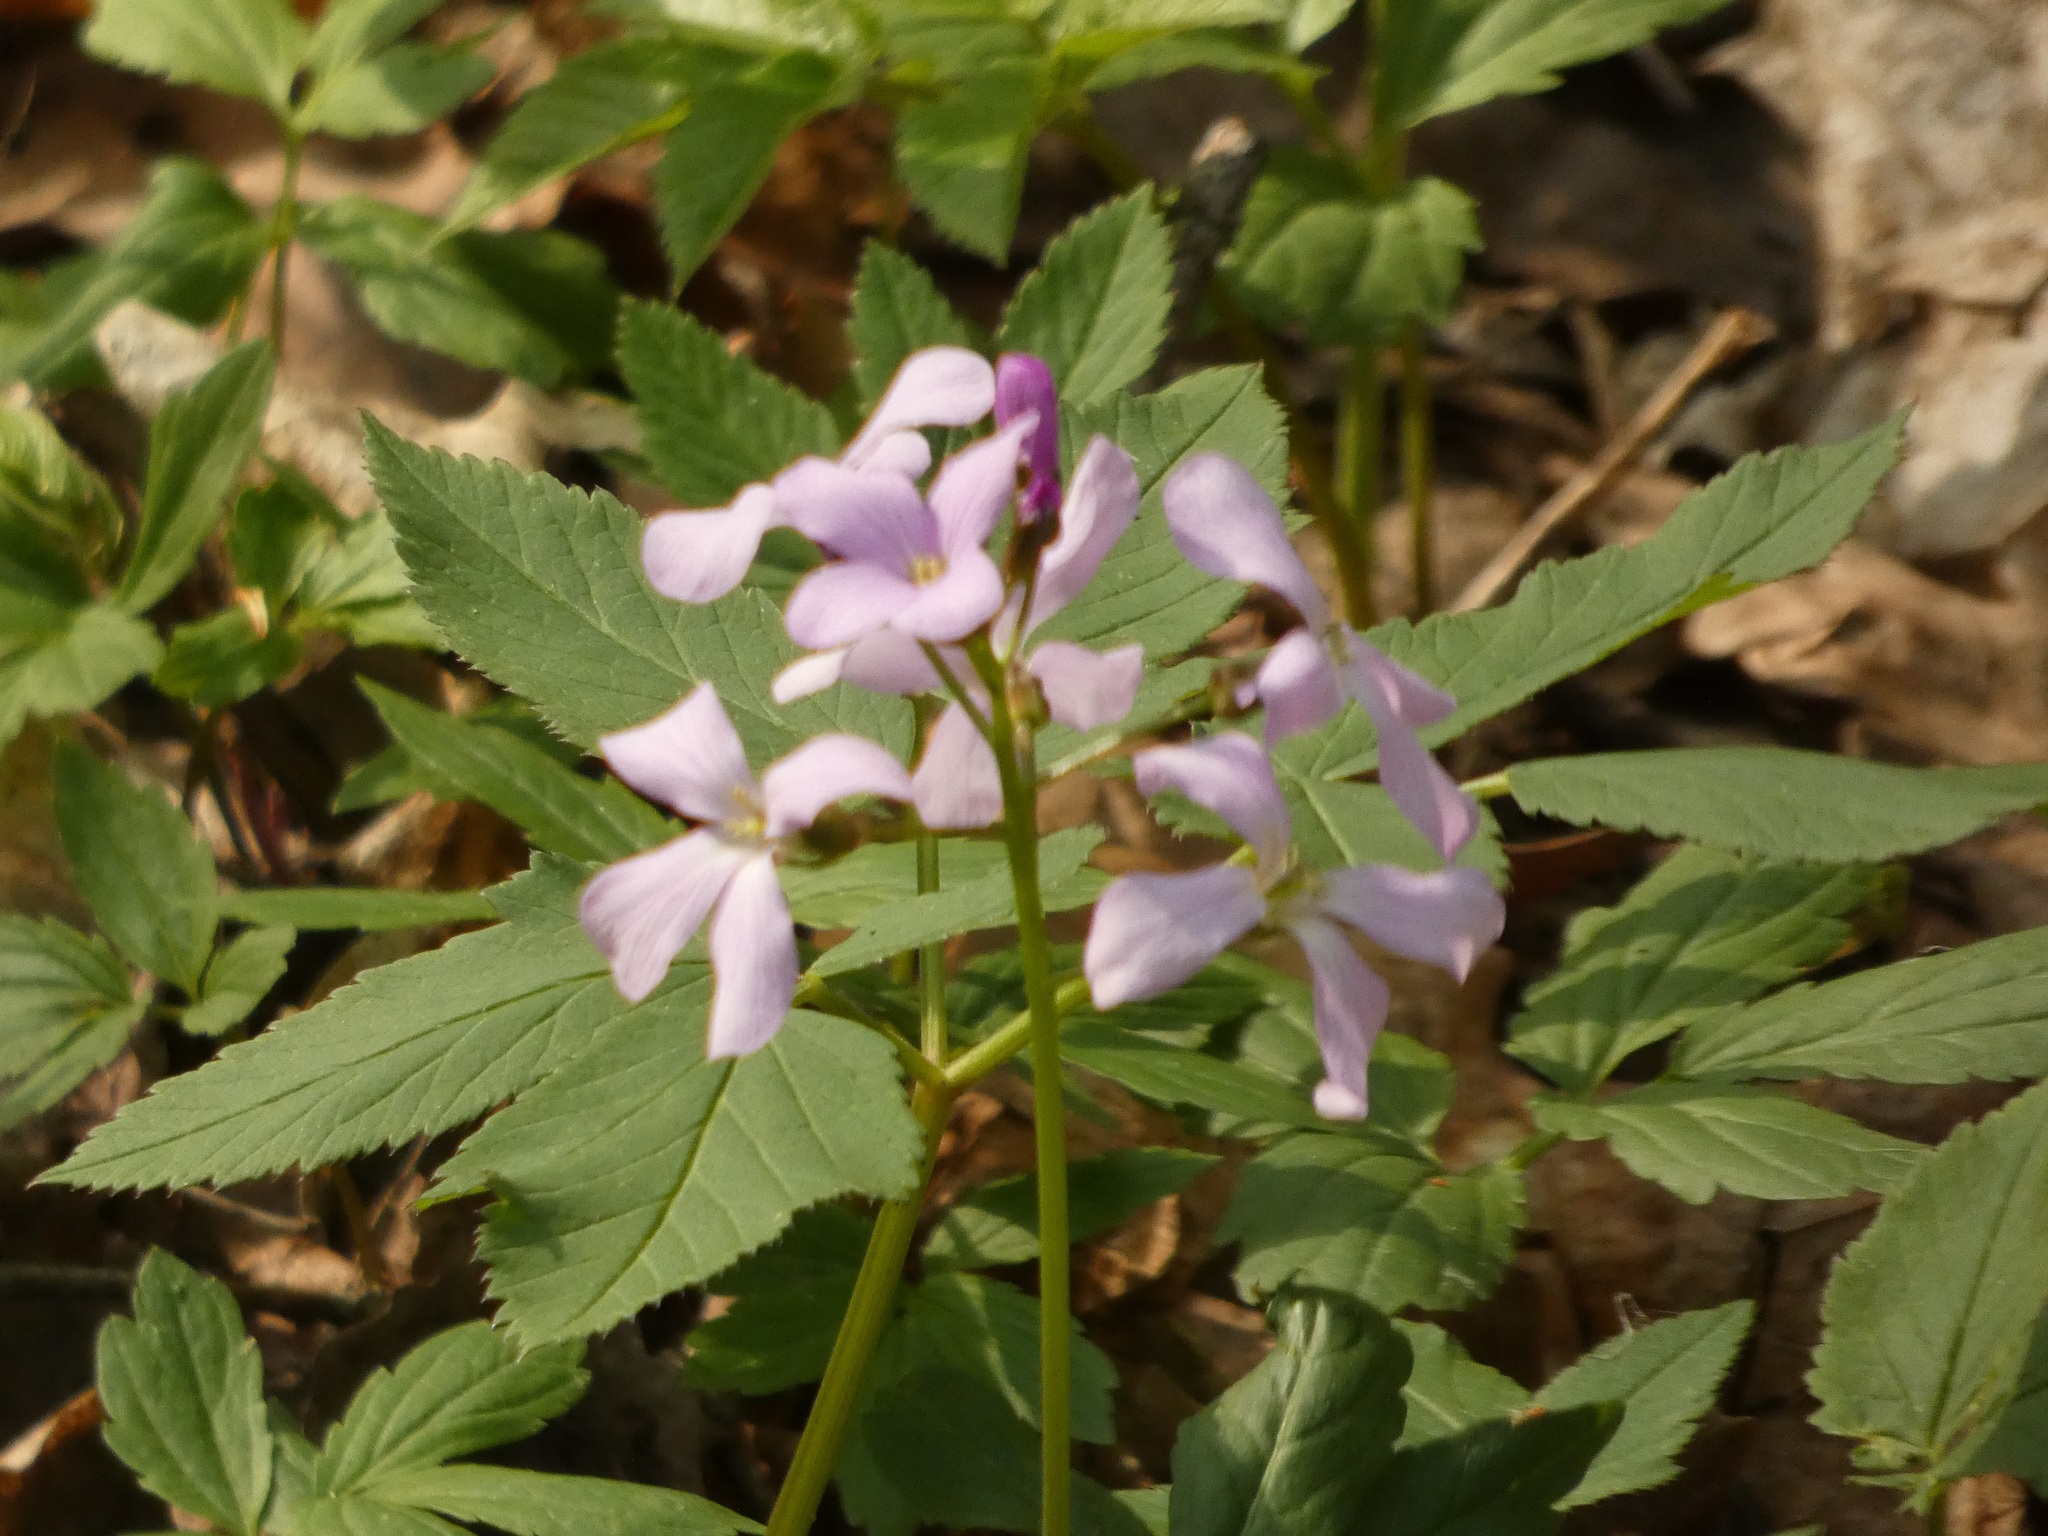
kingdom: Plantae
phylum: Tracheophyta
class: Magnoliopsida
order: Brassicales
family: Brassicaceae
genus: Cardamine
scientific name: Cardamine quinquefolia
